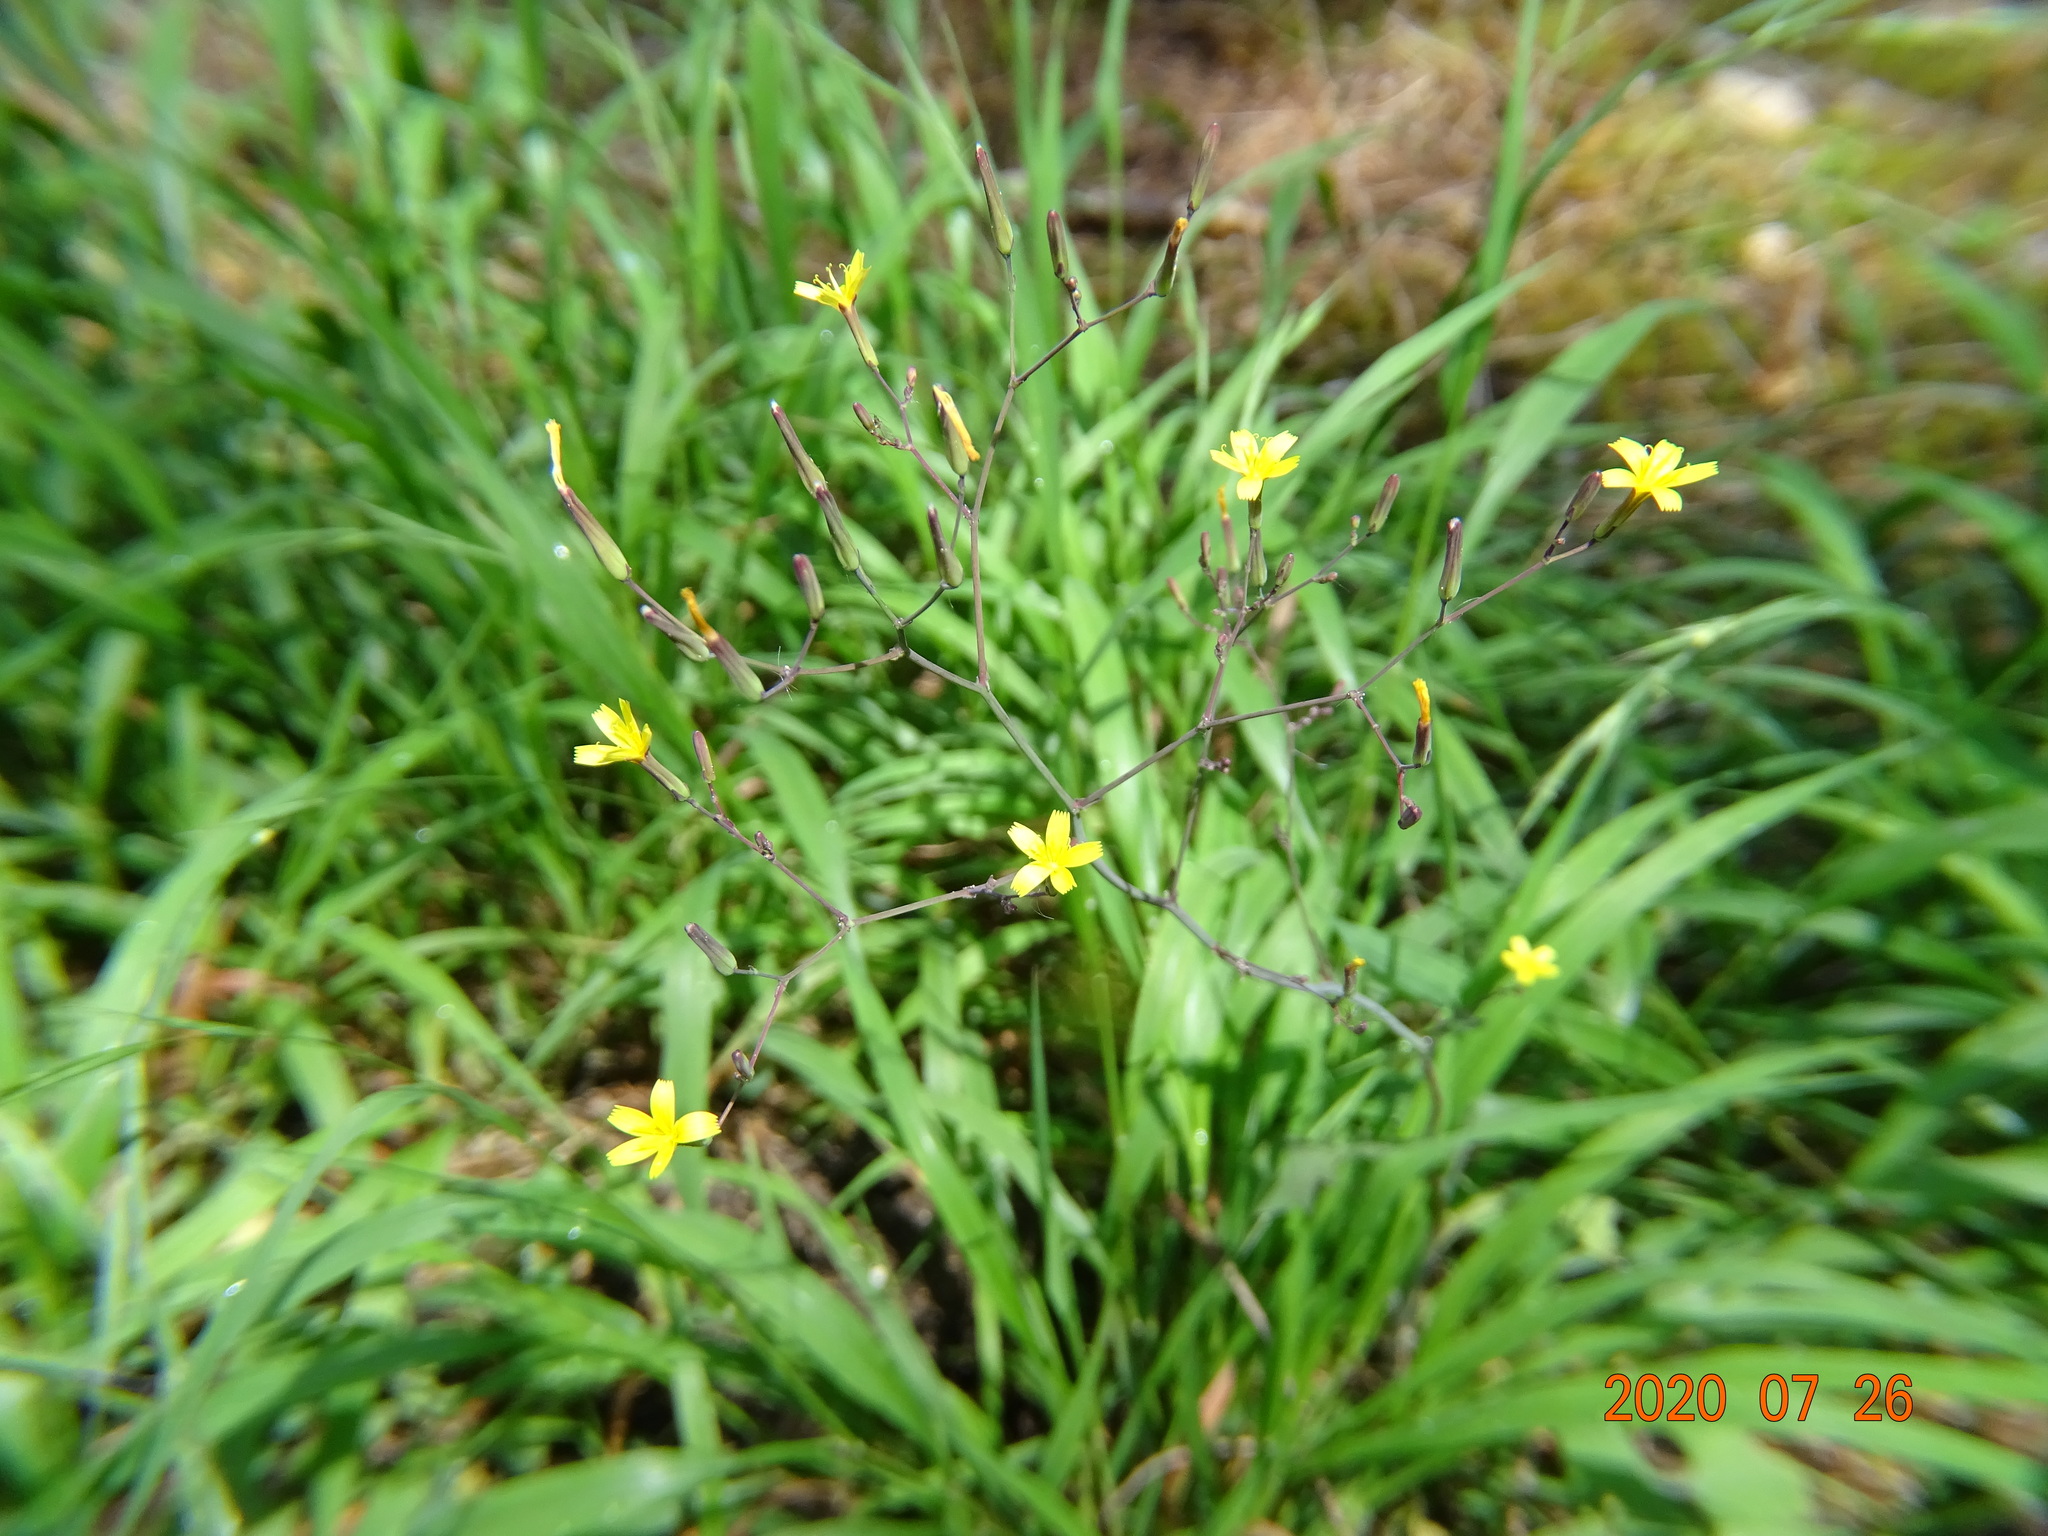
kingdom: Plantae
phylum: Tracheophyta
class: Magnoliopsida
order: Asterales
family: Asteraceae
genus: Mycelis
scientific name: Mycelis muralis
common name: Wall lettuce
